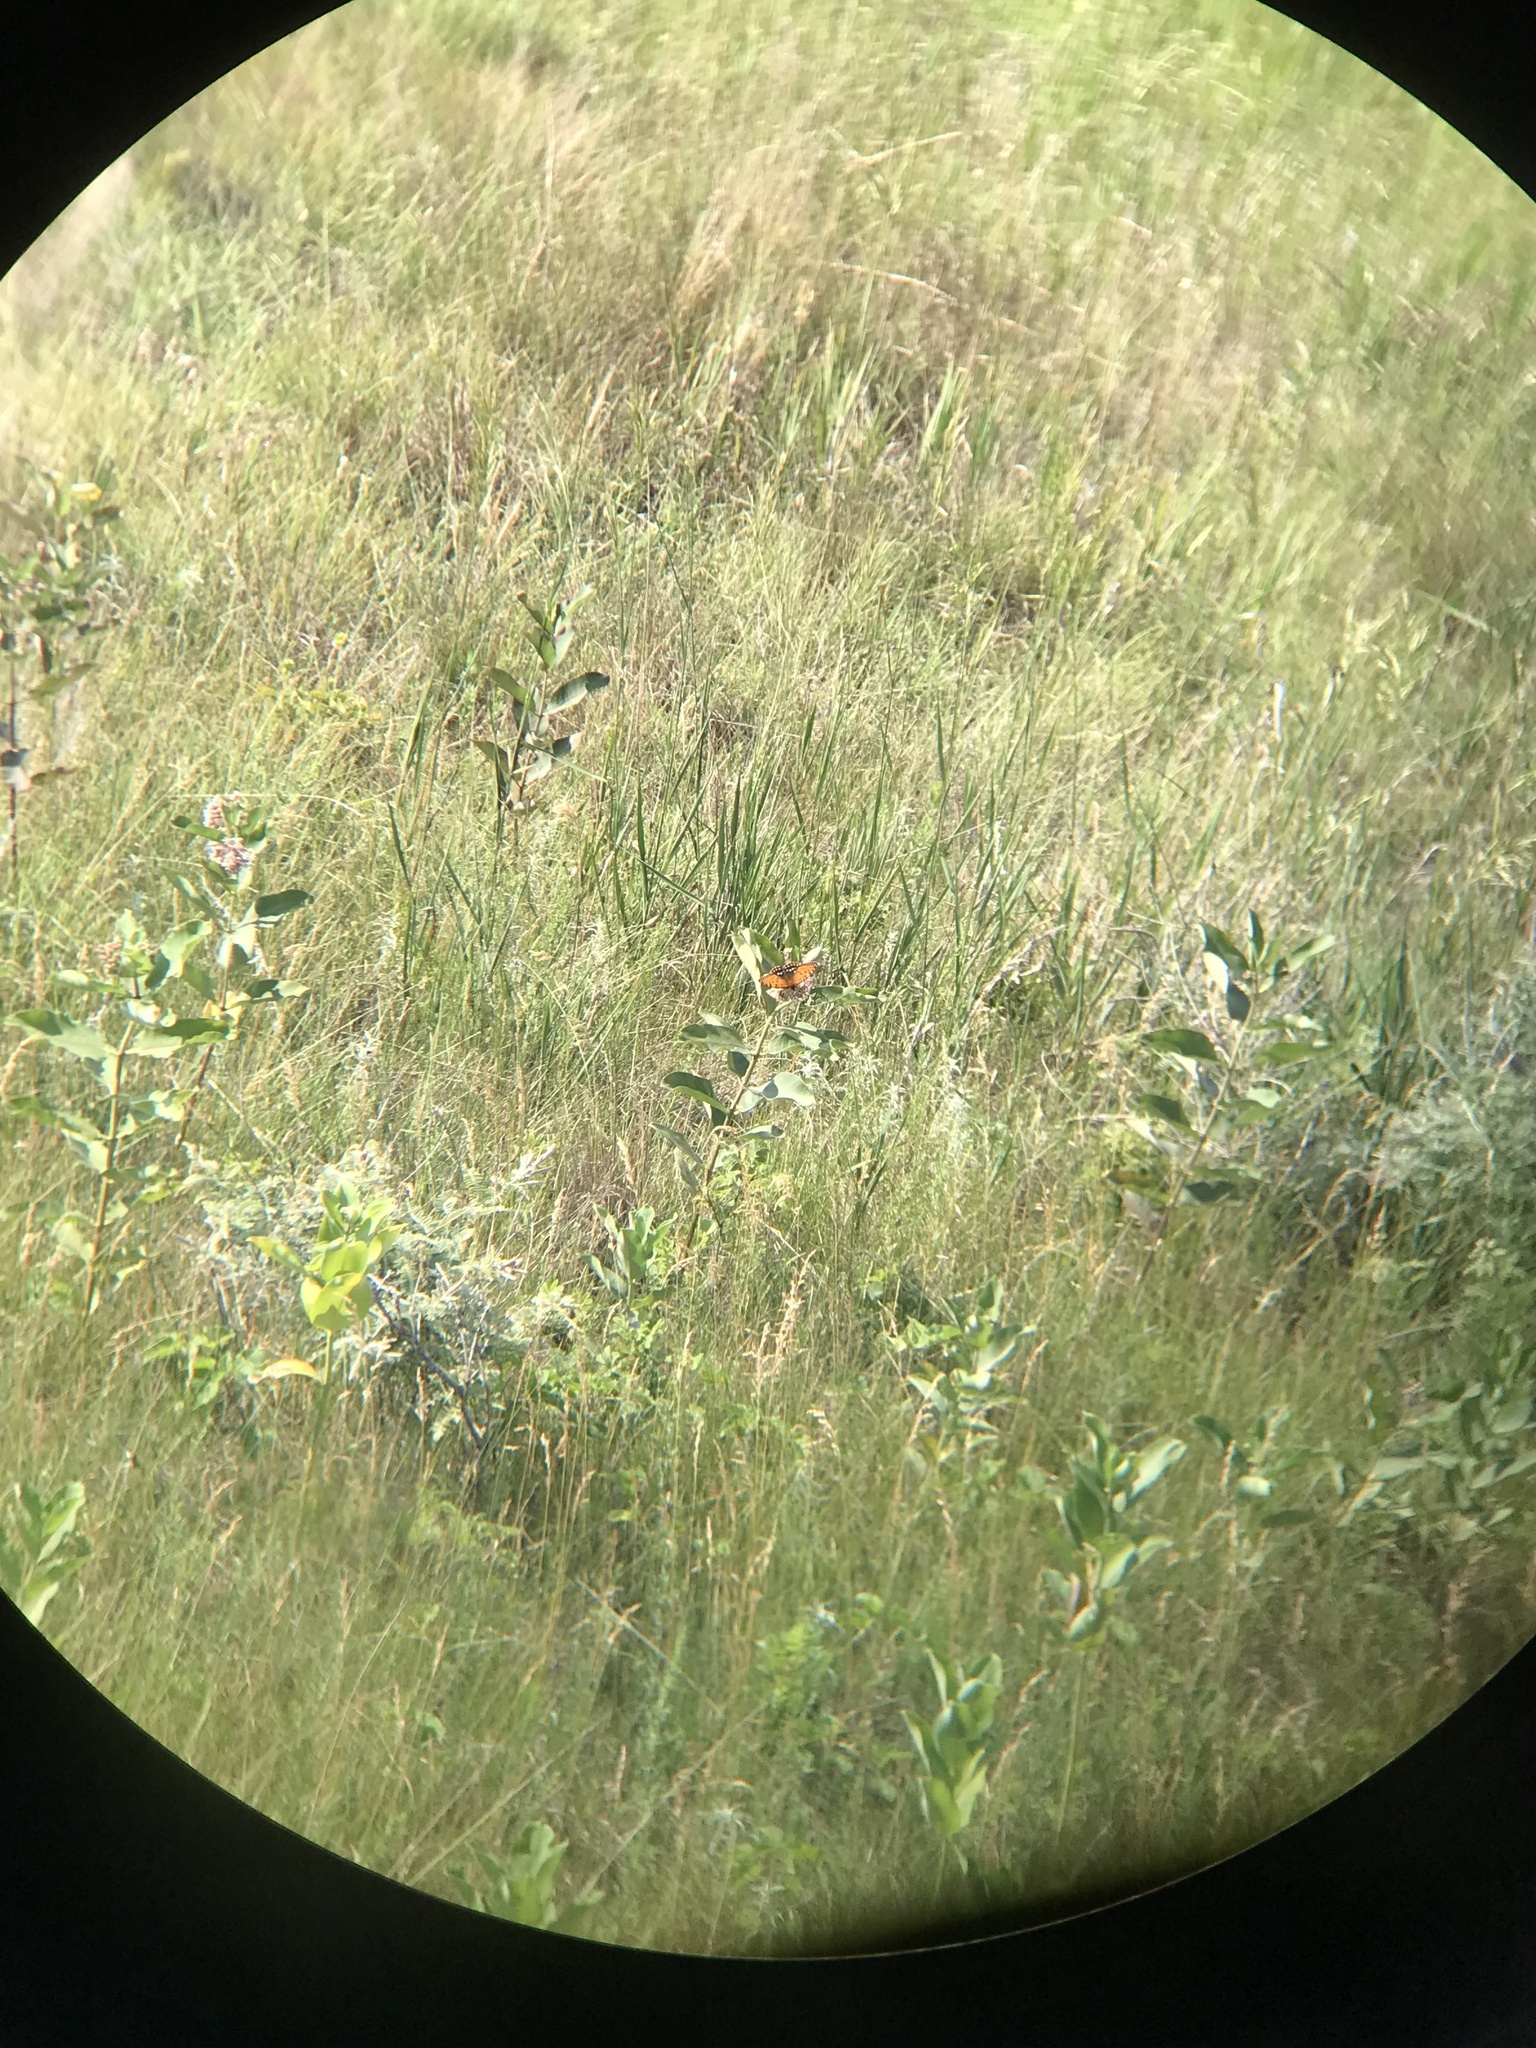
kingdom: Animalia
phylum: Arthropoda
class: Insecta
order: Lepidoptera
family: Nymphalidae
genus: Speyeria
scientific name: Speyeria idalia
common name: Regal fritillary
